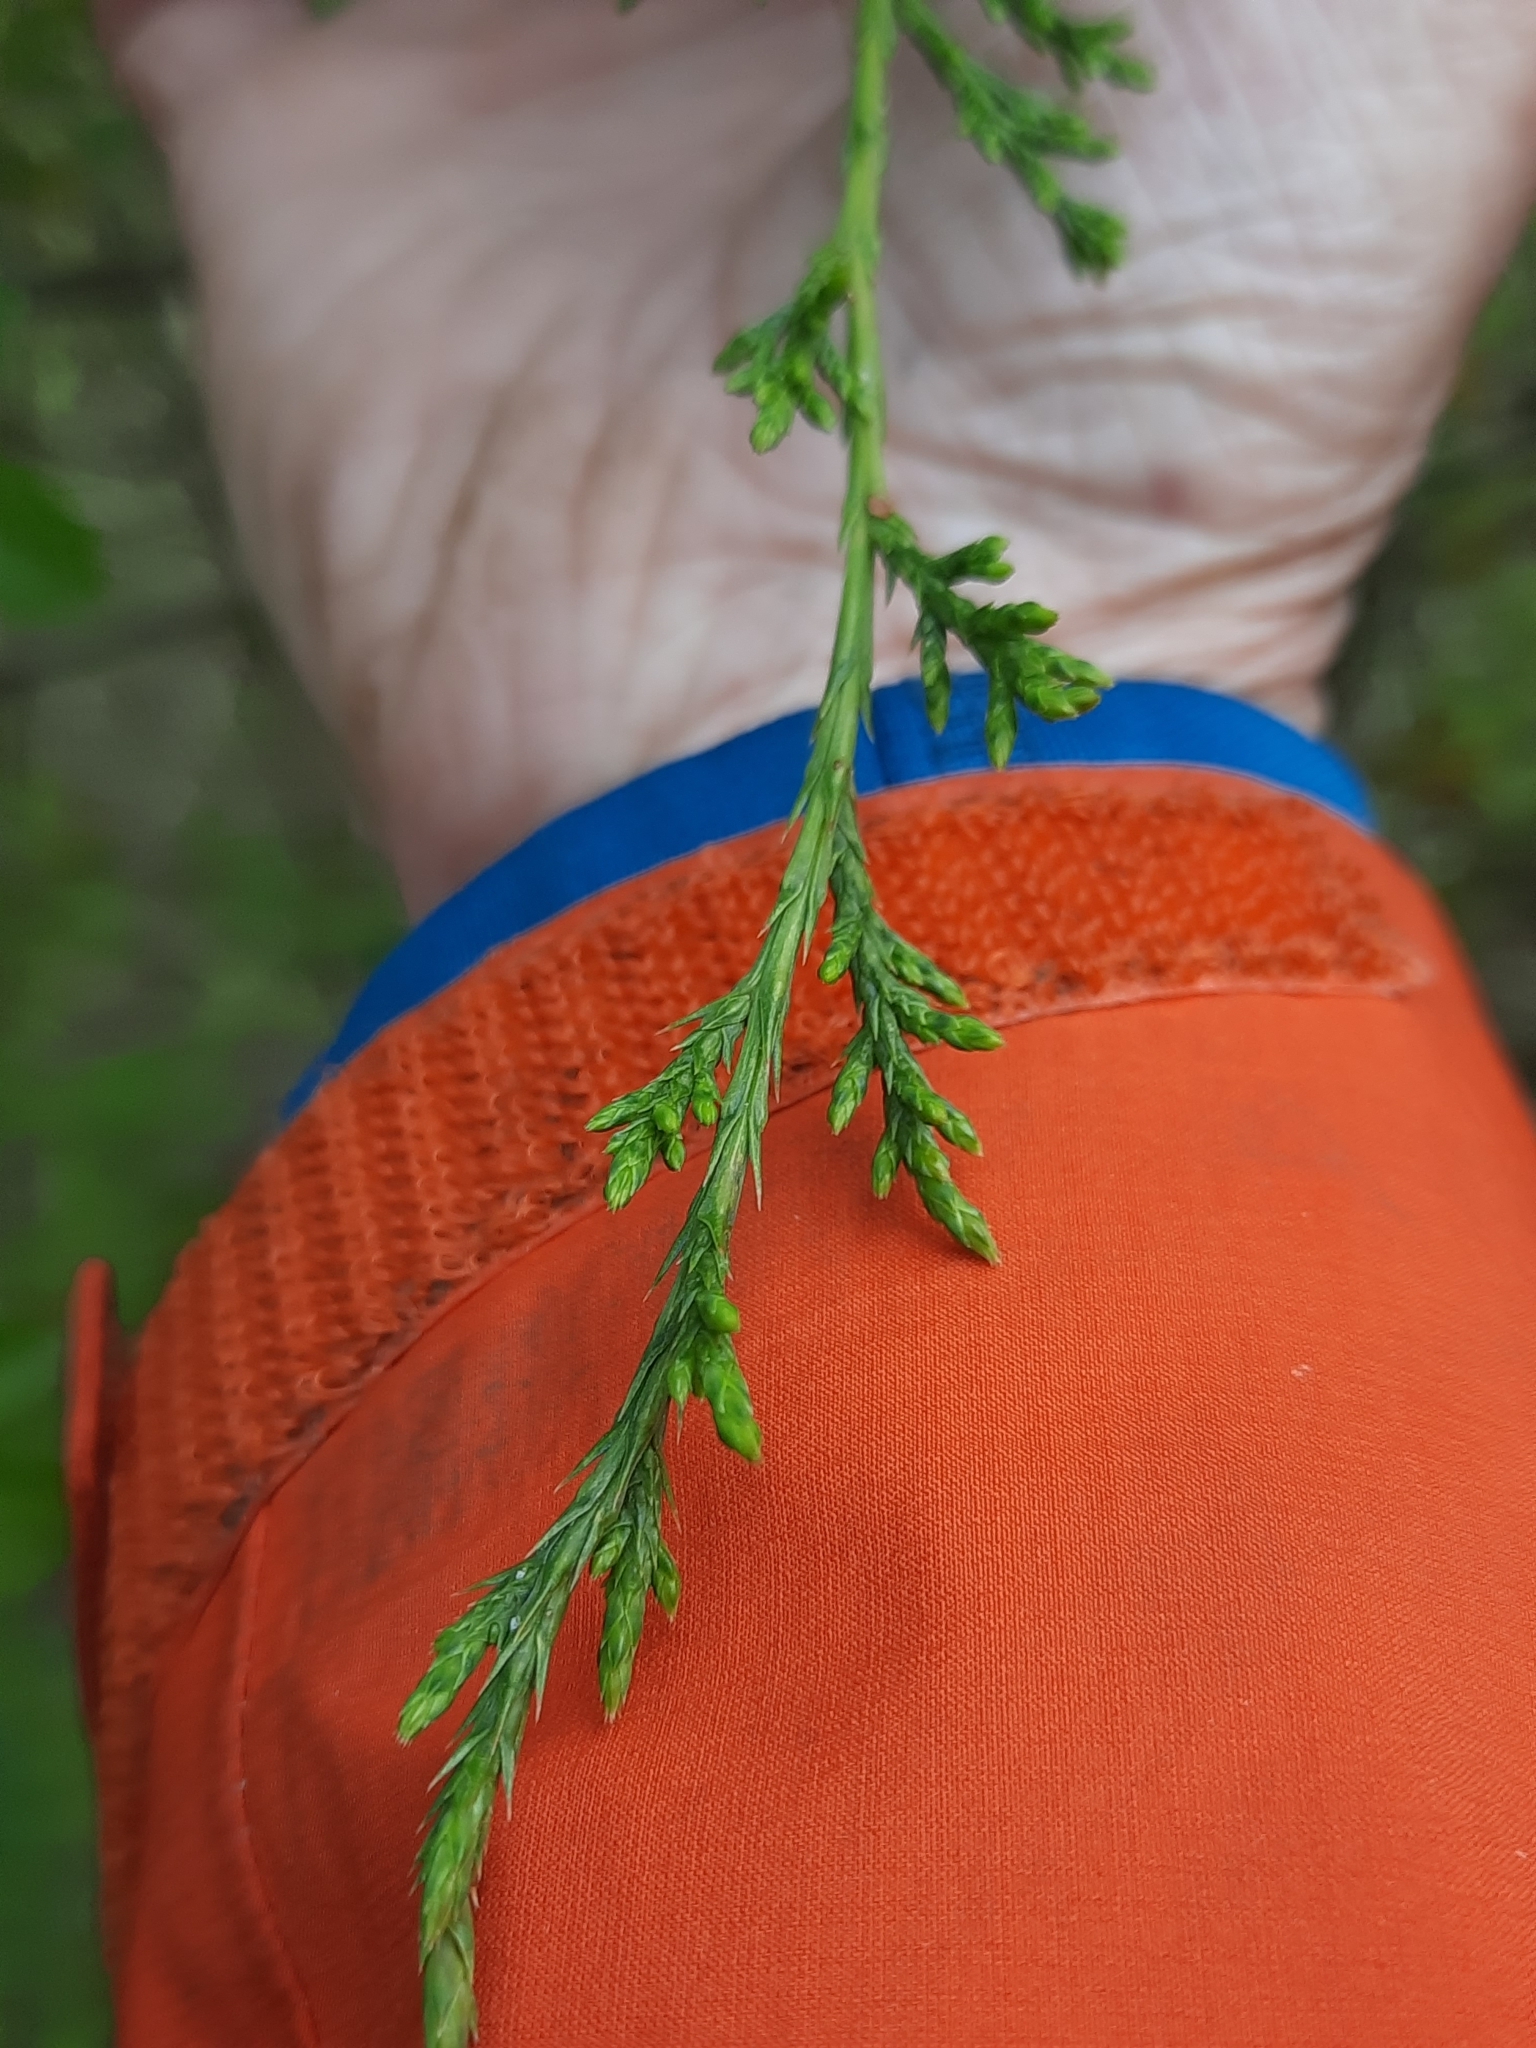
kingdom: Plantae
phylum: Tracheophyta
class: Pinopsida
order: Pinales
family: Cupressaceae
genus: Juniperus
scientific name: Juniperus virginiana
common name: Red juniper
